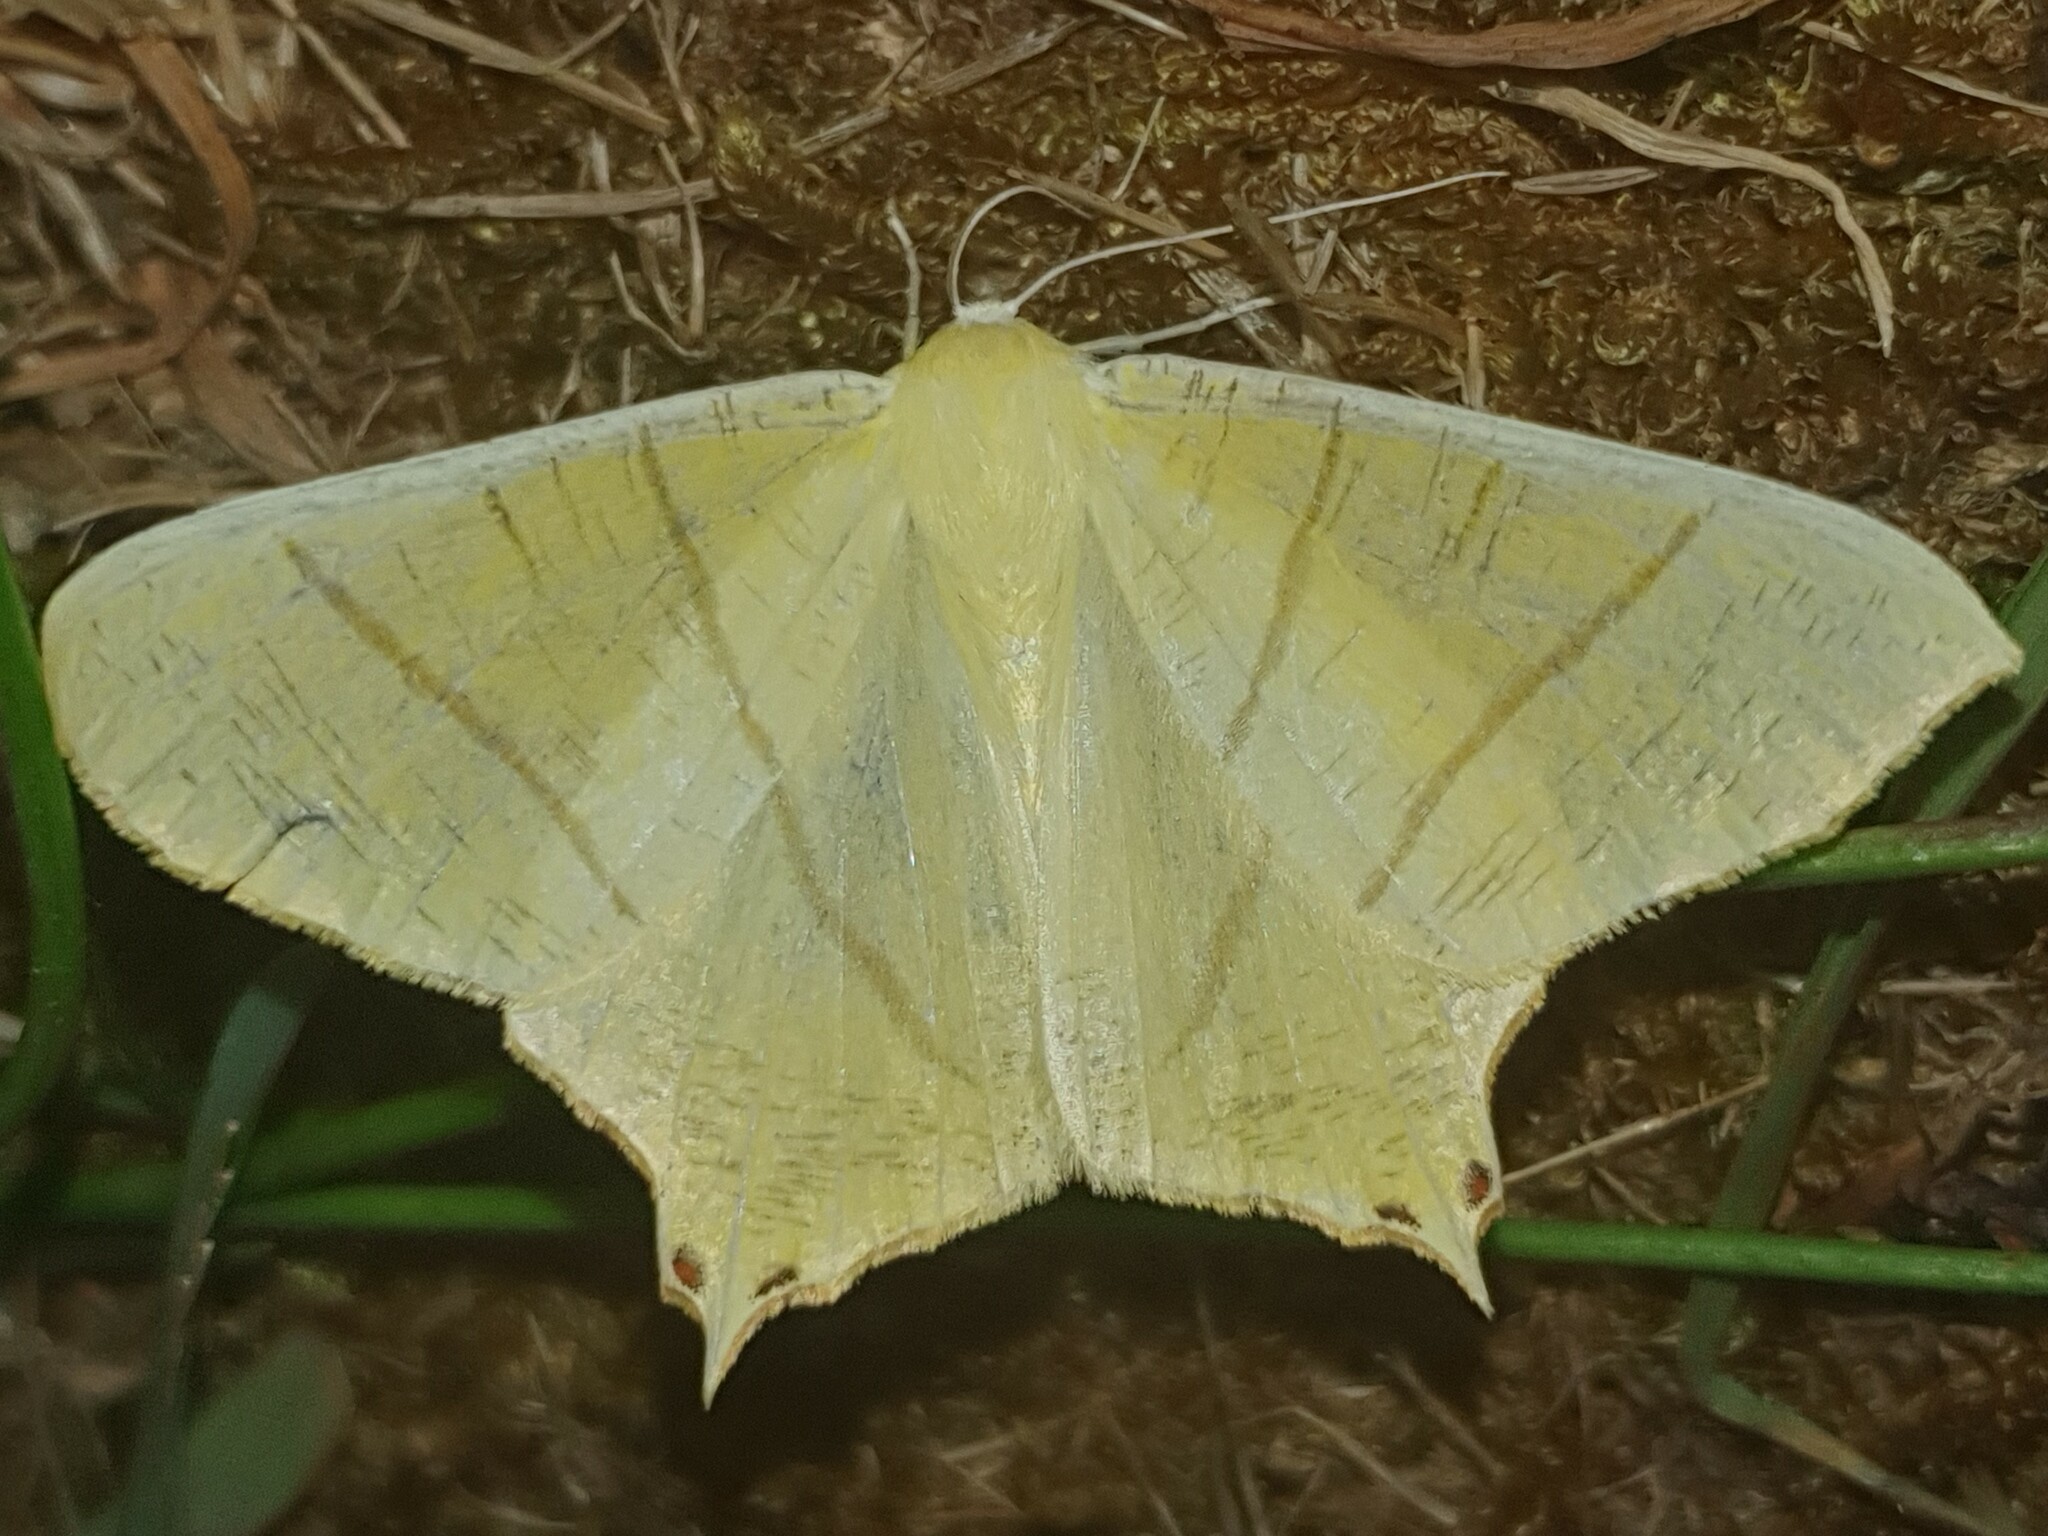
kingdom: Animalia
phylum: Arthropoda
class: Insecta
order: Lepidoptera
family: Geometridae
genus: Ourapteryx
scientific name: Ourapteryx sambucaria
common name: Swallow-tailed moth
